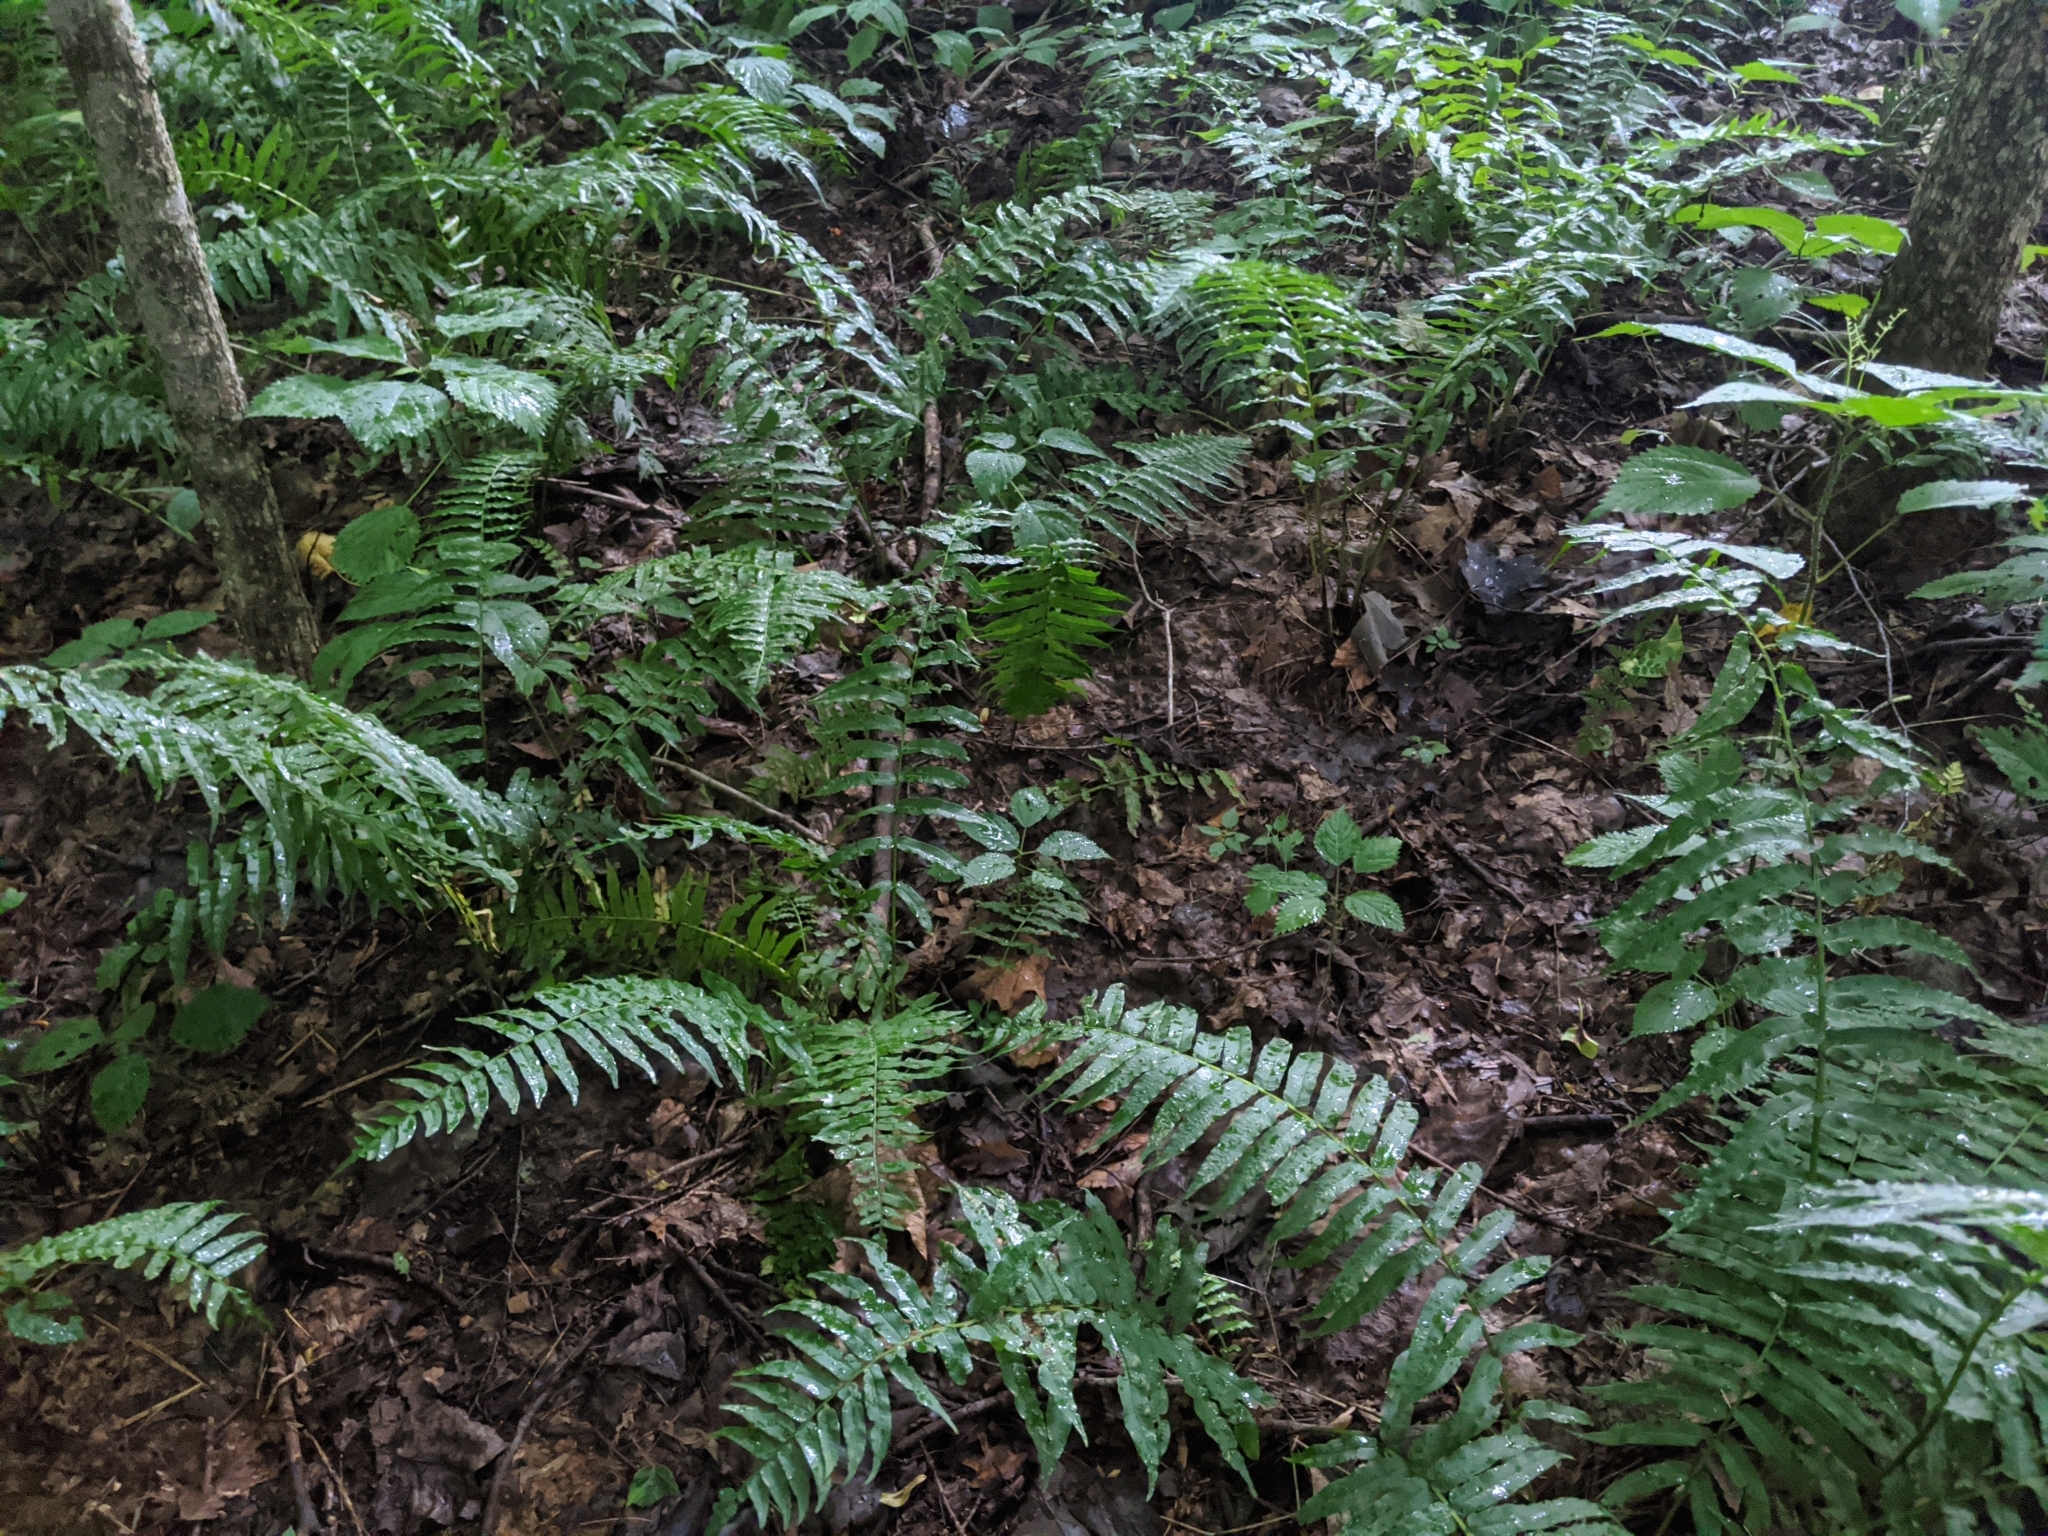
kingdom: Plantae
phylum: Tracheophyta
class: Polypodiopsida
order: Polypodiales
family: Diplaziopsidaceae
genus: Homalosorus
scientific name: Homalosorus pycnocarpos
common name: Glade fern
